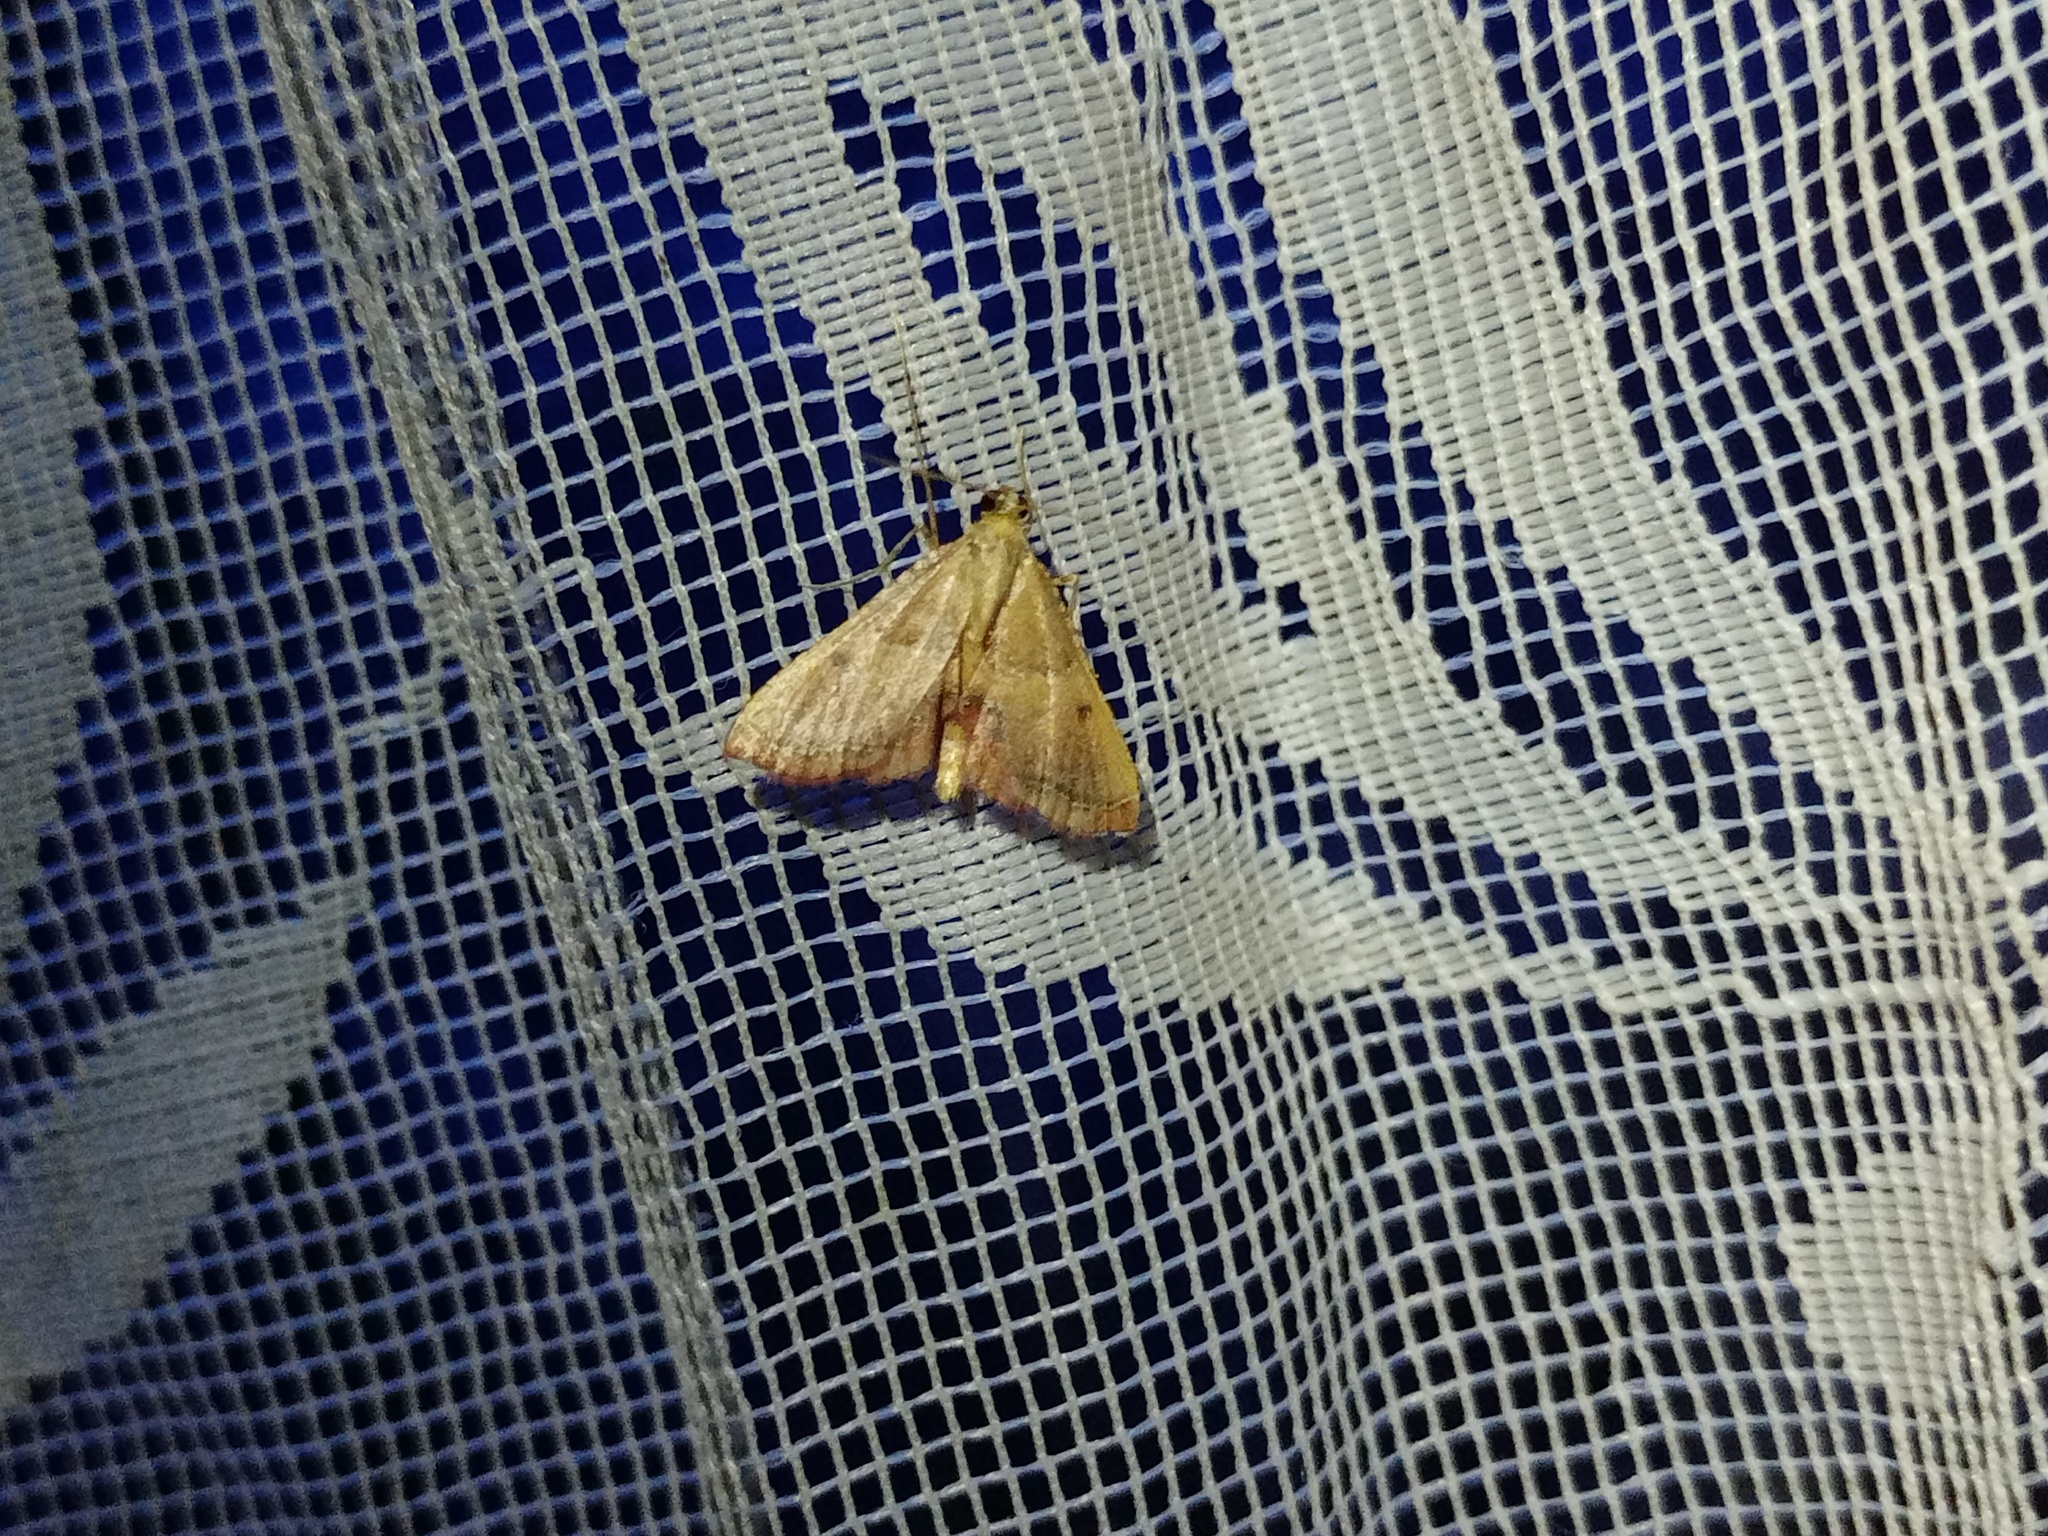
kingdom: Animalia
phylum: Arthropoda
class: Insecta
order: Lepidoptera
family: Pyralidae
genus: Endotricha
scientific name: Endotricha flammealis
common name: Rosy tabby
